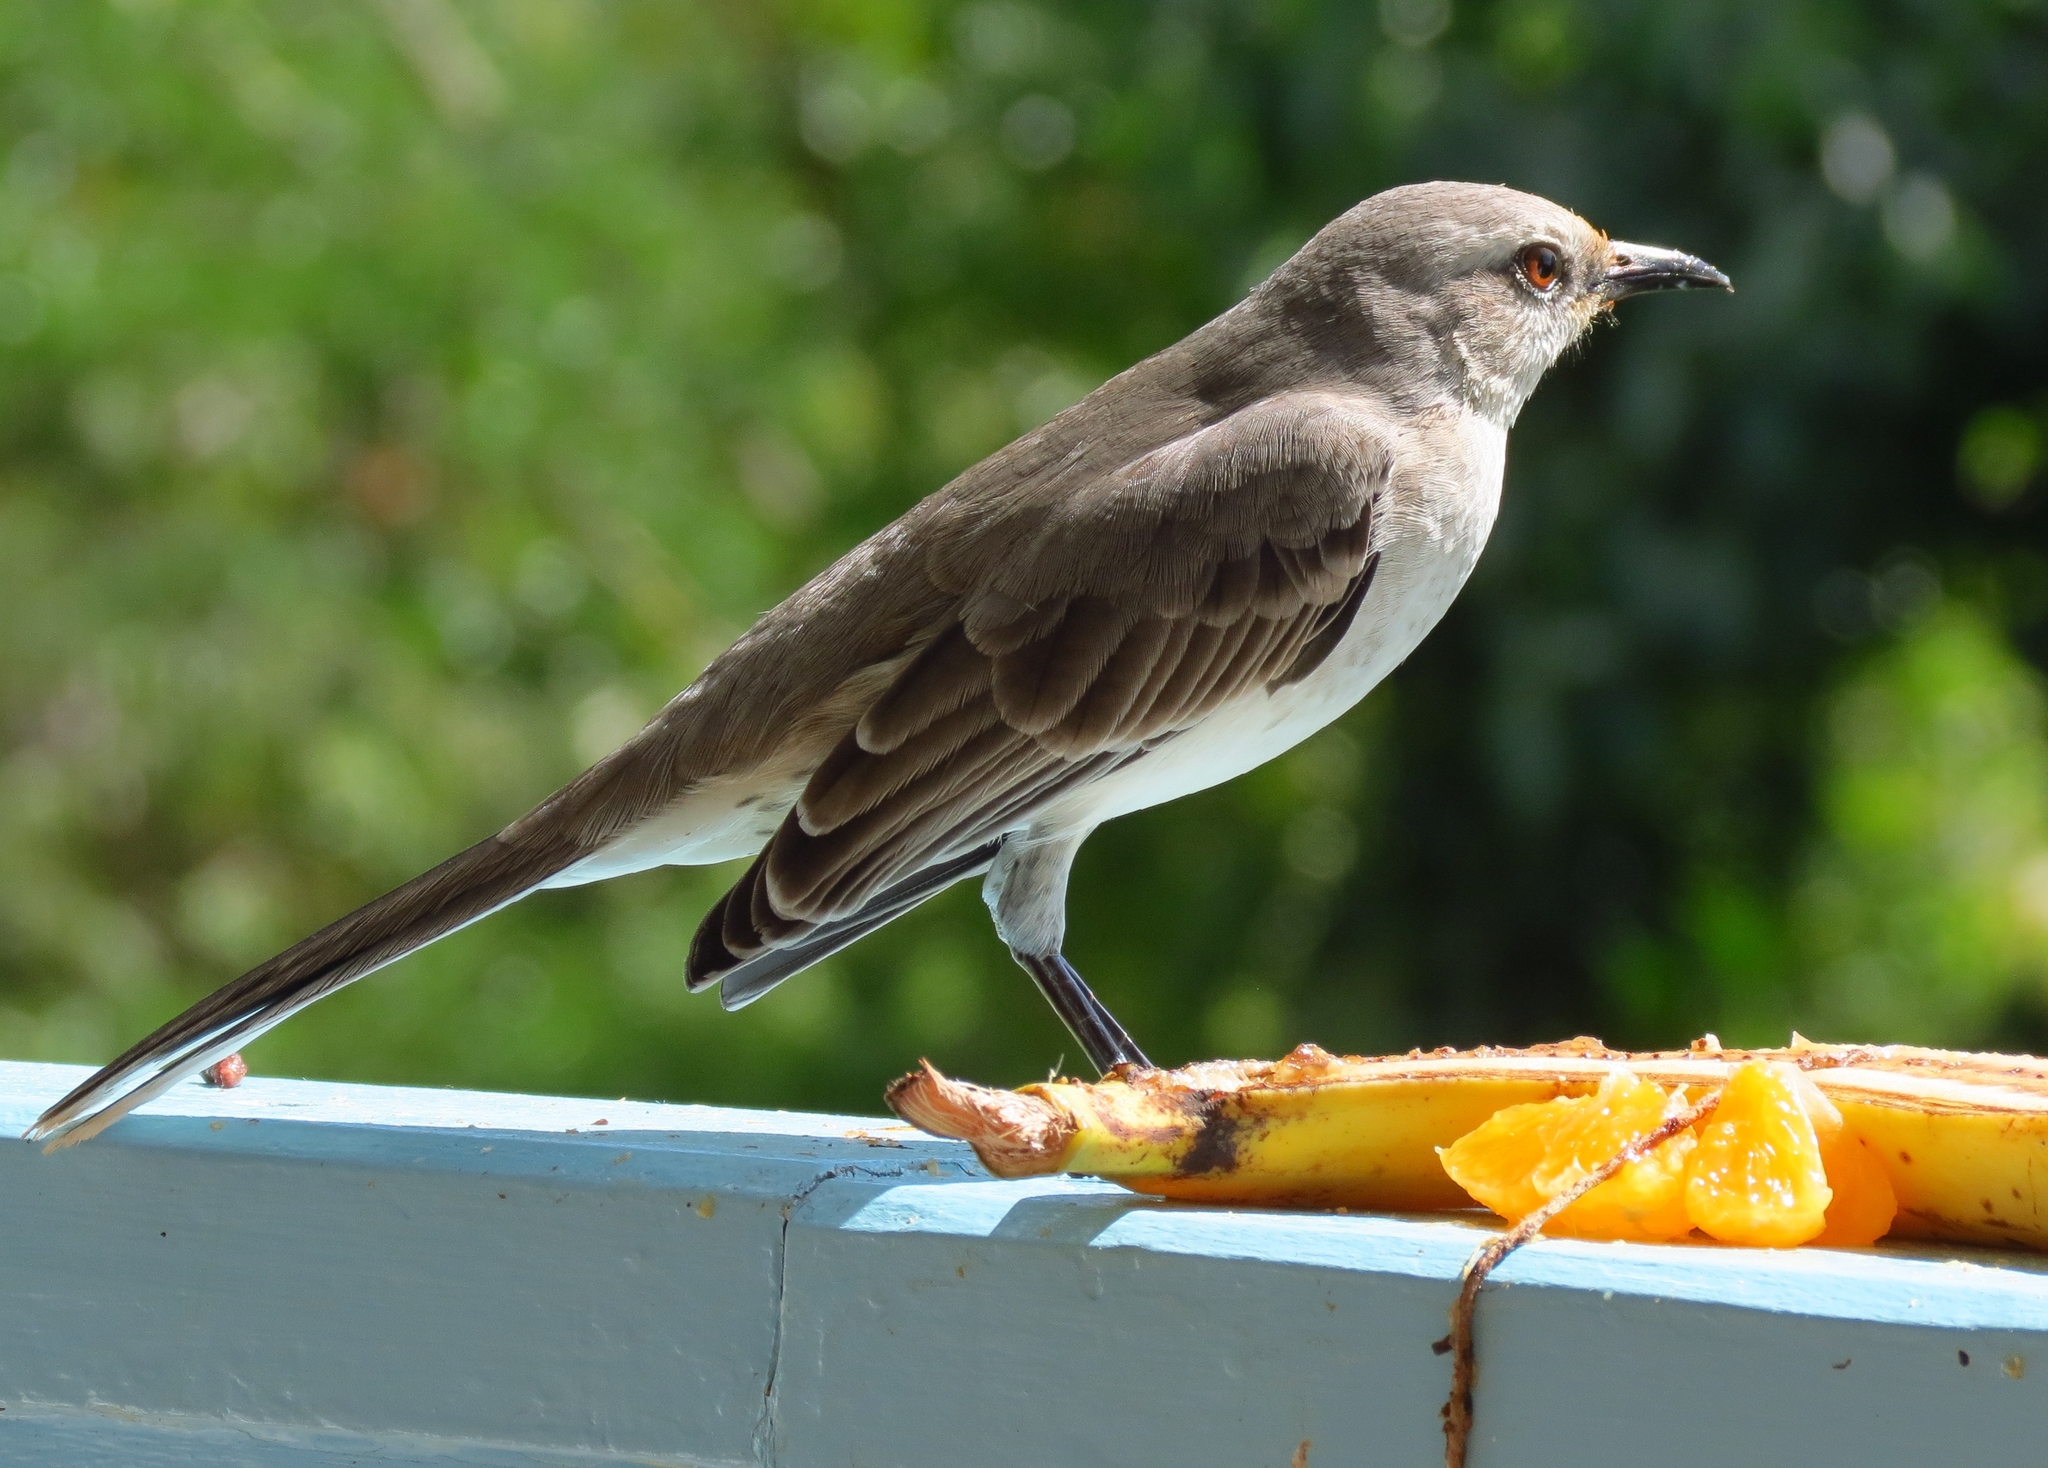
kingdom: Animalia
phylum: Chordata
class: Aves
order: Passeriformes
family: Mimidae
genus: Mimus
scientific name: Mimus gilvus
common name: Tropical mockingbird
